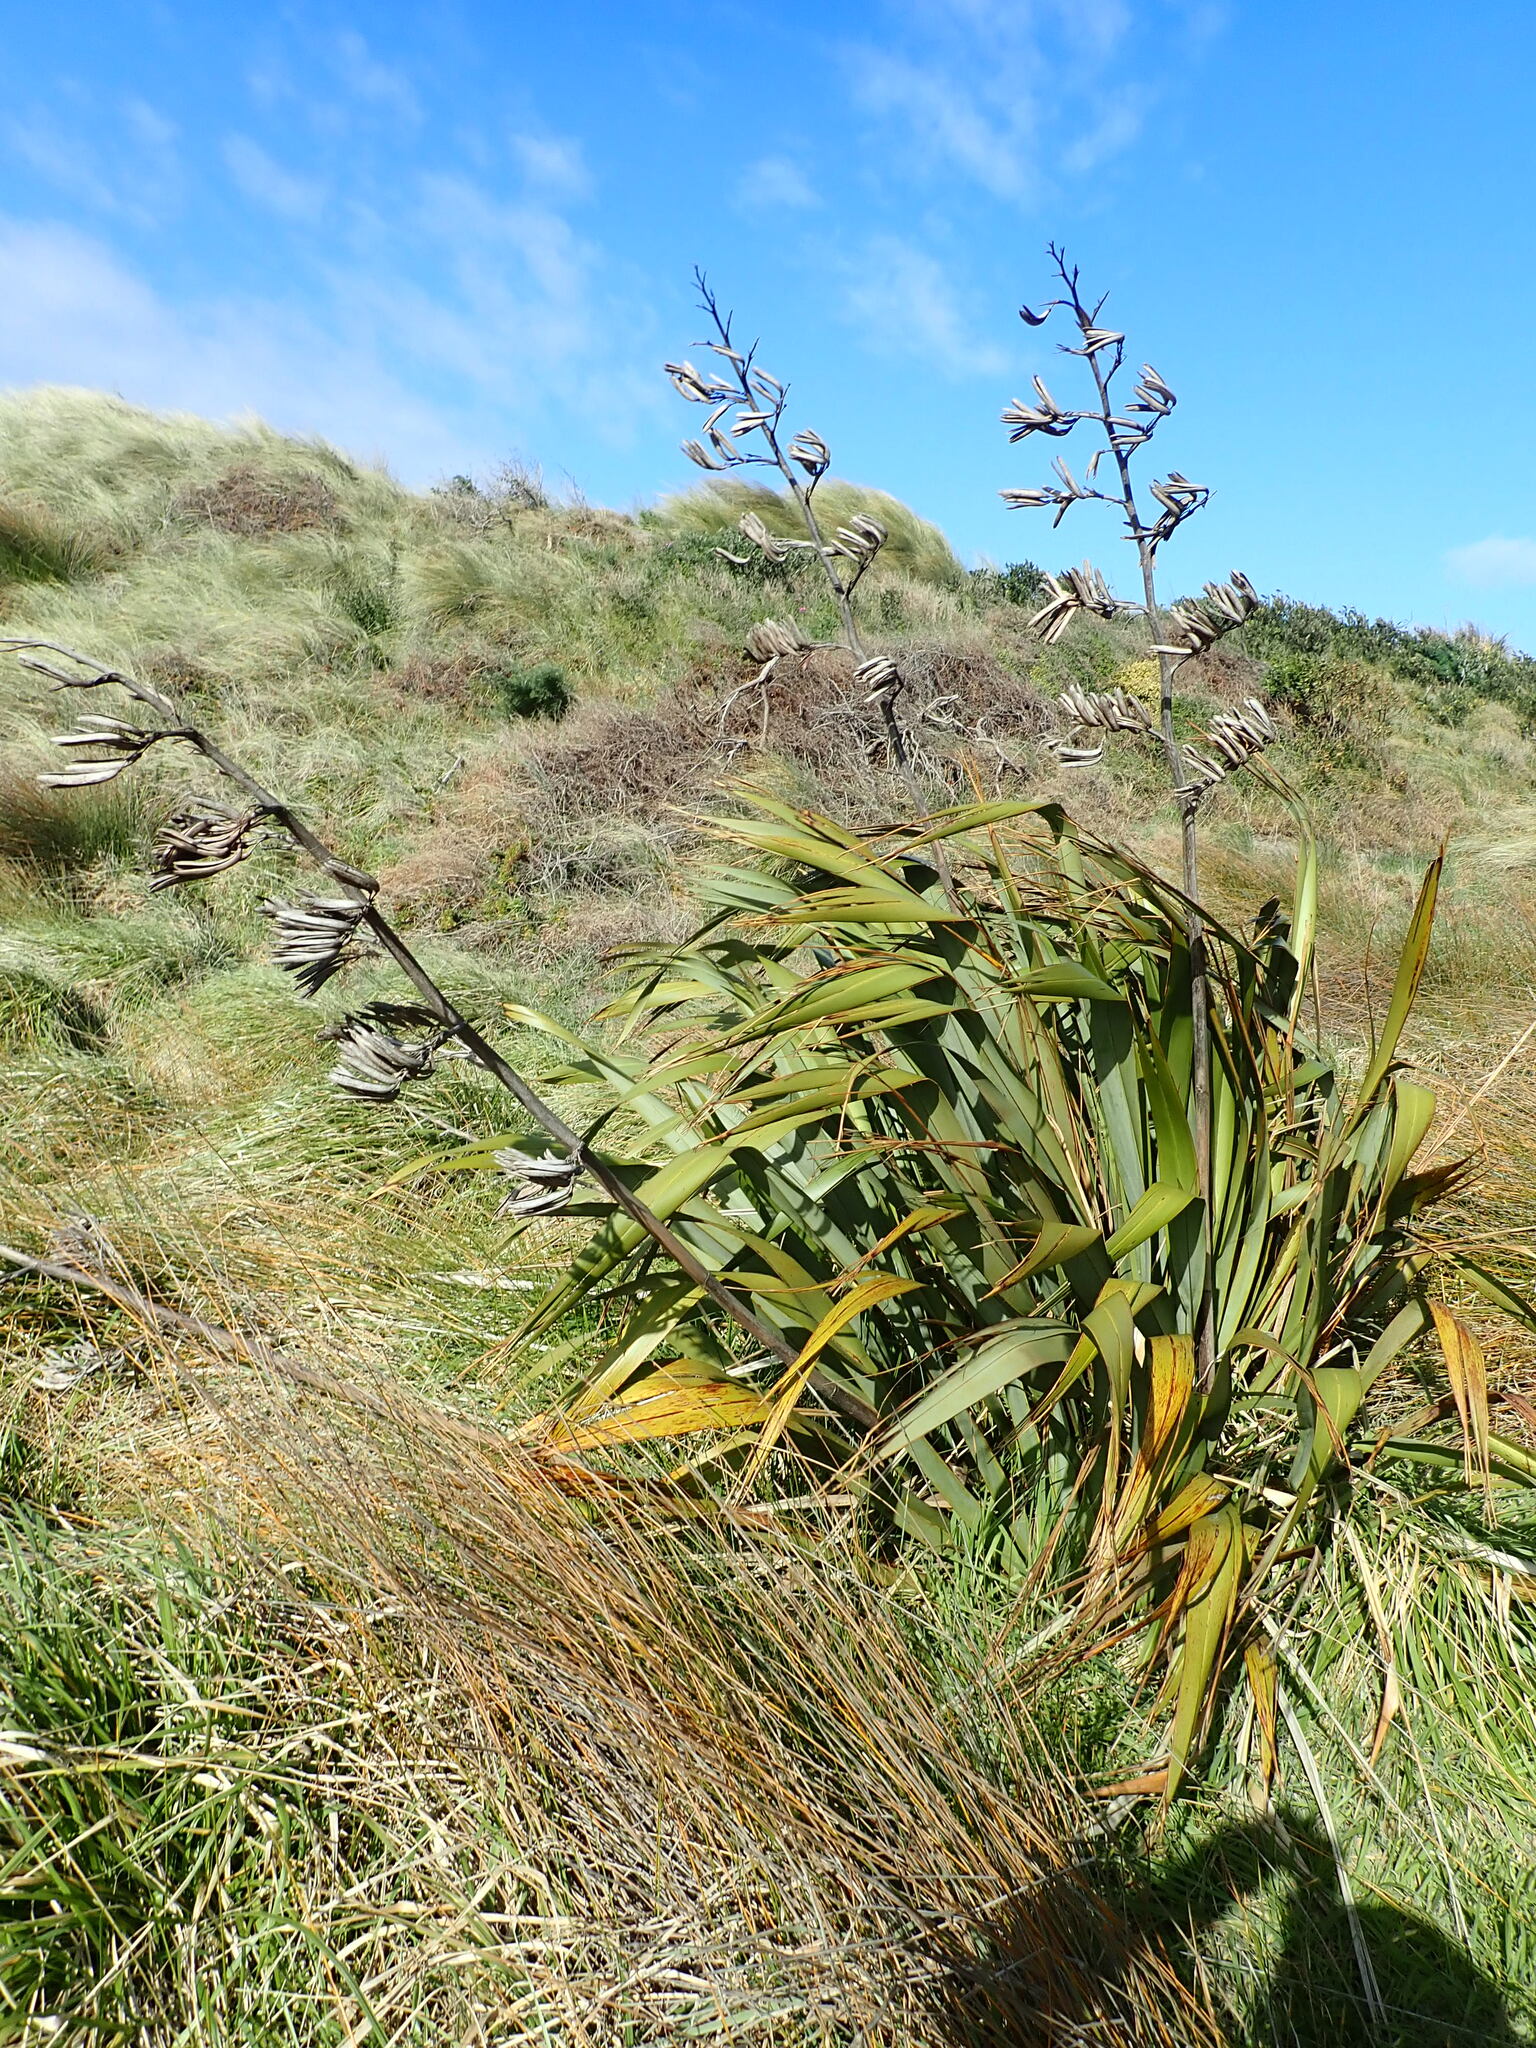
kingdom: Plantae
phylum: Tracheophyta
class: Liliopsida
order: Asparagales
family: Asphodelaceae
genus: Phormium
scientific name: Phormium tenax
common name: New zealand flax
